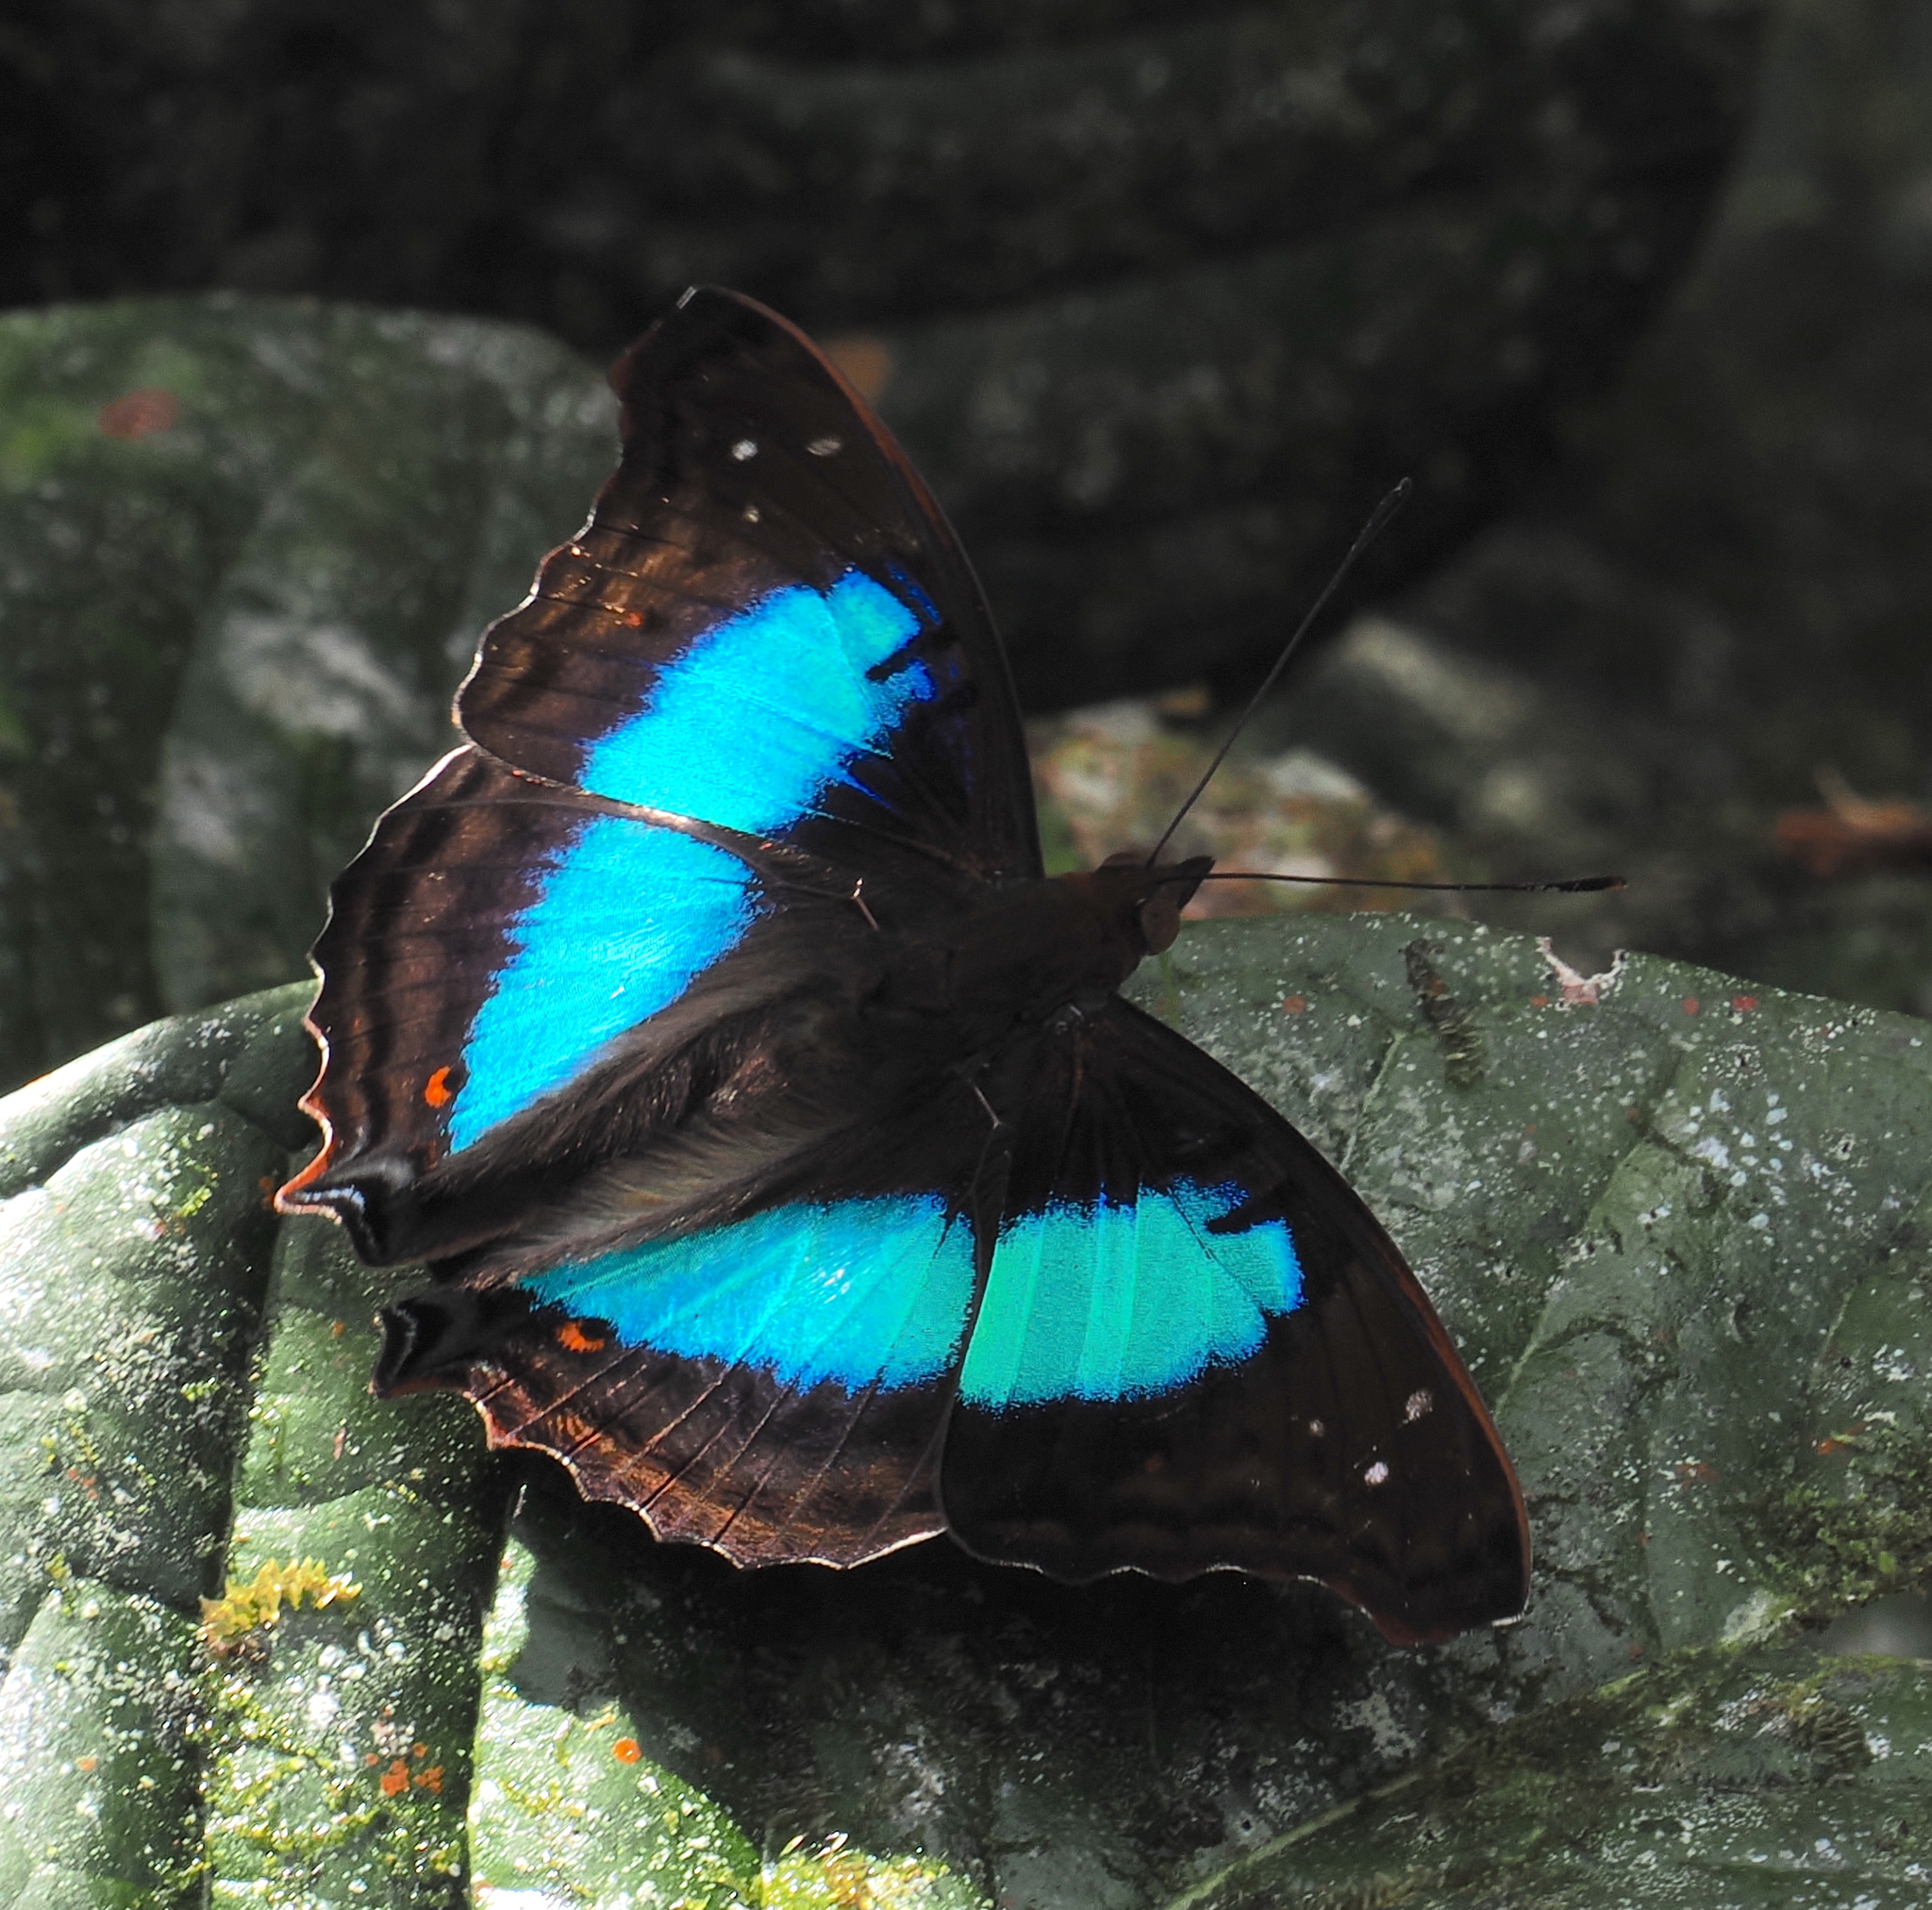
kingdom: Animalia
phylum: Arthropoda
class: Insecta
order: Lepidoptera
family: Nymphalidae
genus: Doxocopa
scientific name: Doxocopa laurentia
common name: Turquoise emperor
